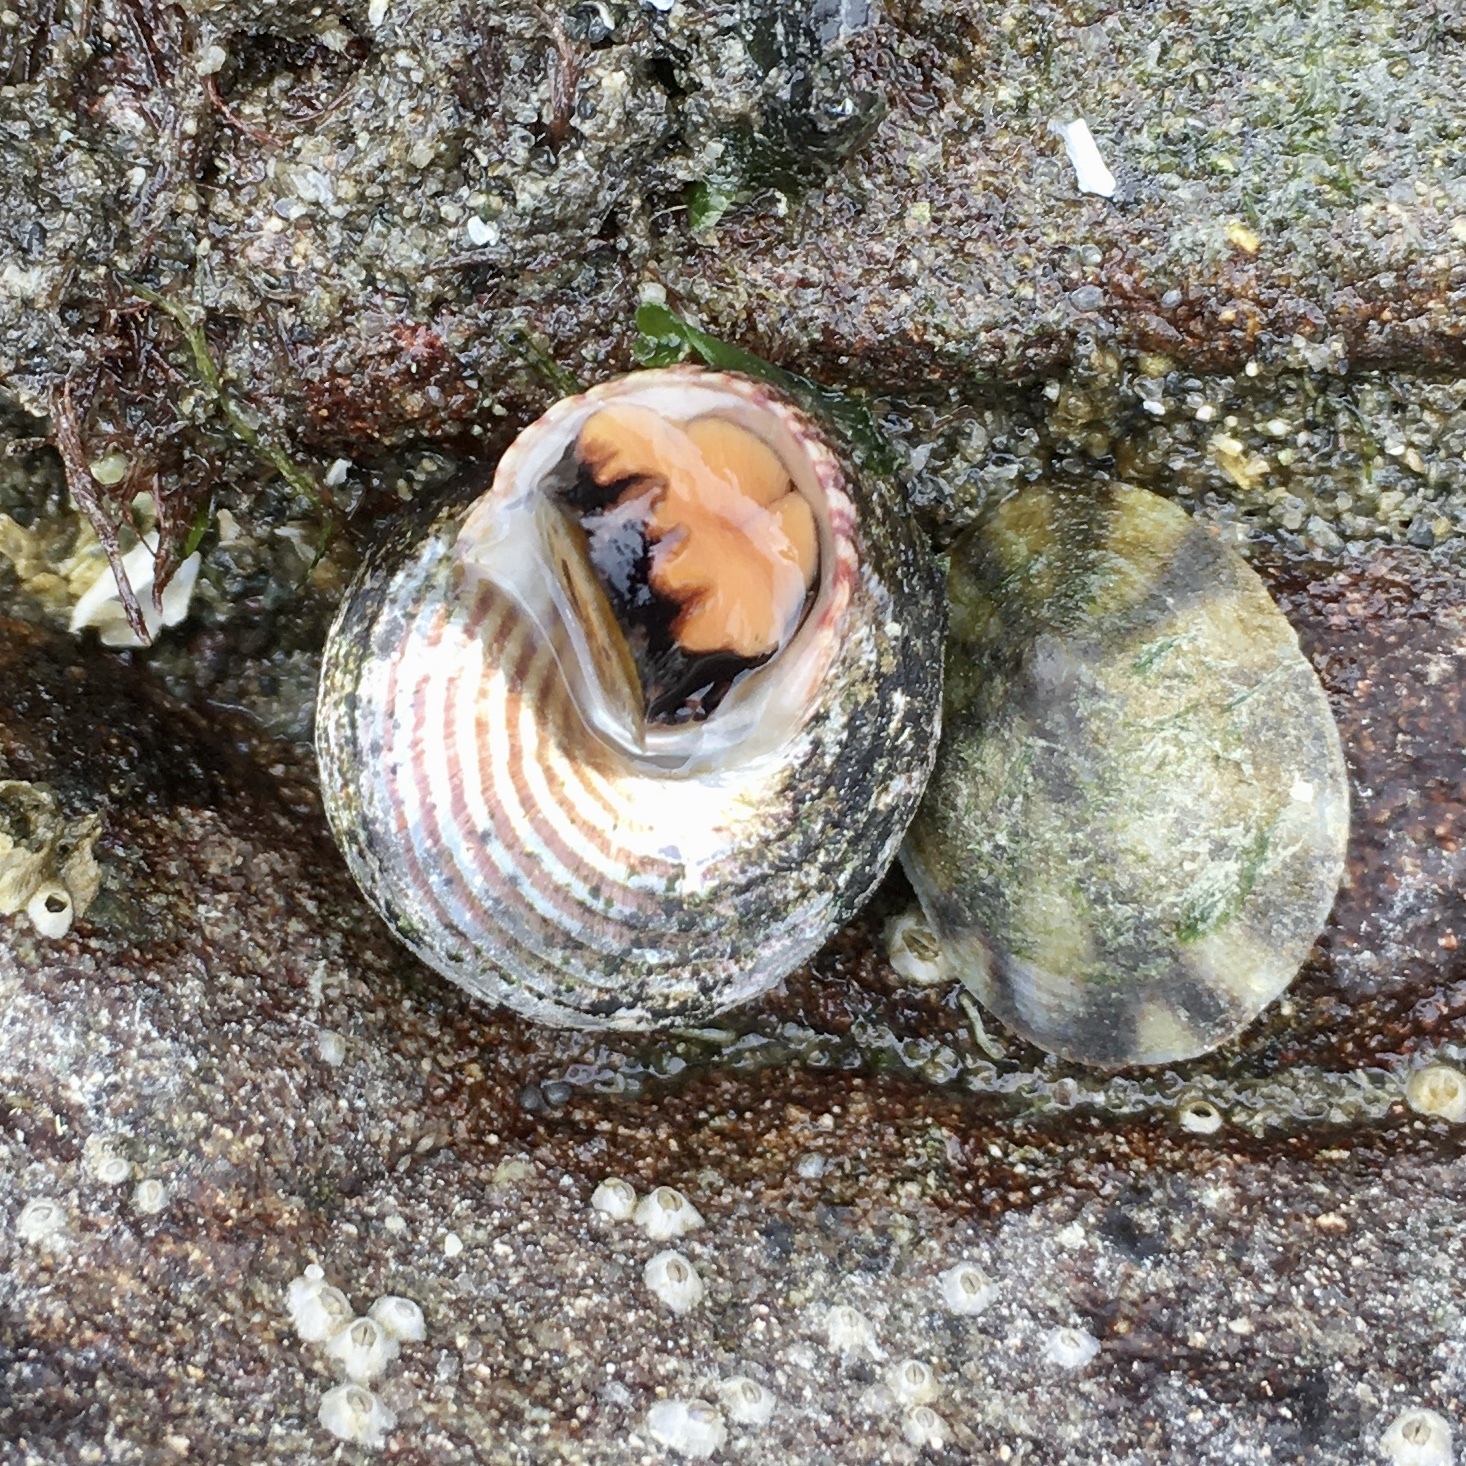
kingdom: Animalia
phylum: Mollusca
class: Gastropoda
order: Trochida
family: Calliostomatidae
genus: Calliostoma
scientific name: Calliostoma ligatum
